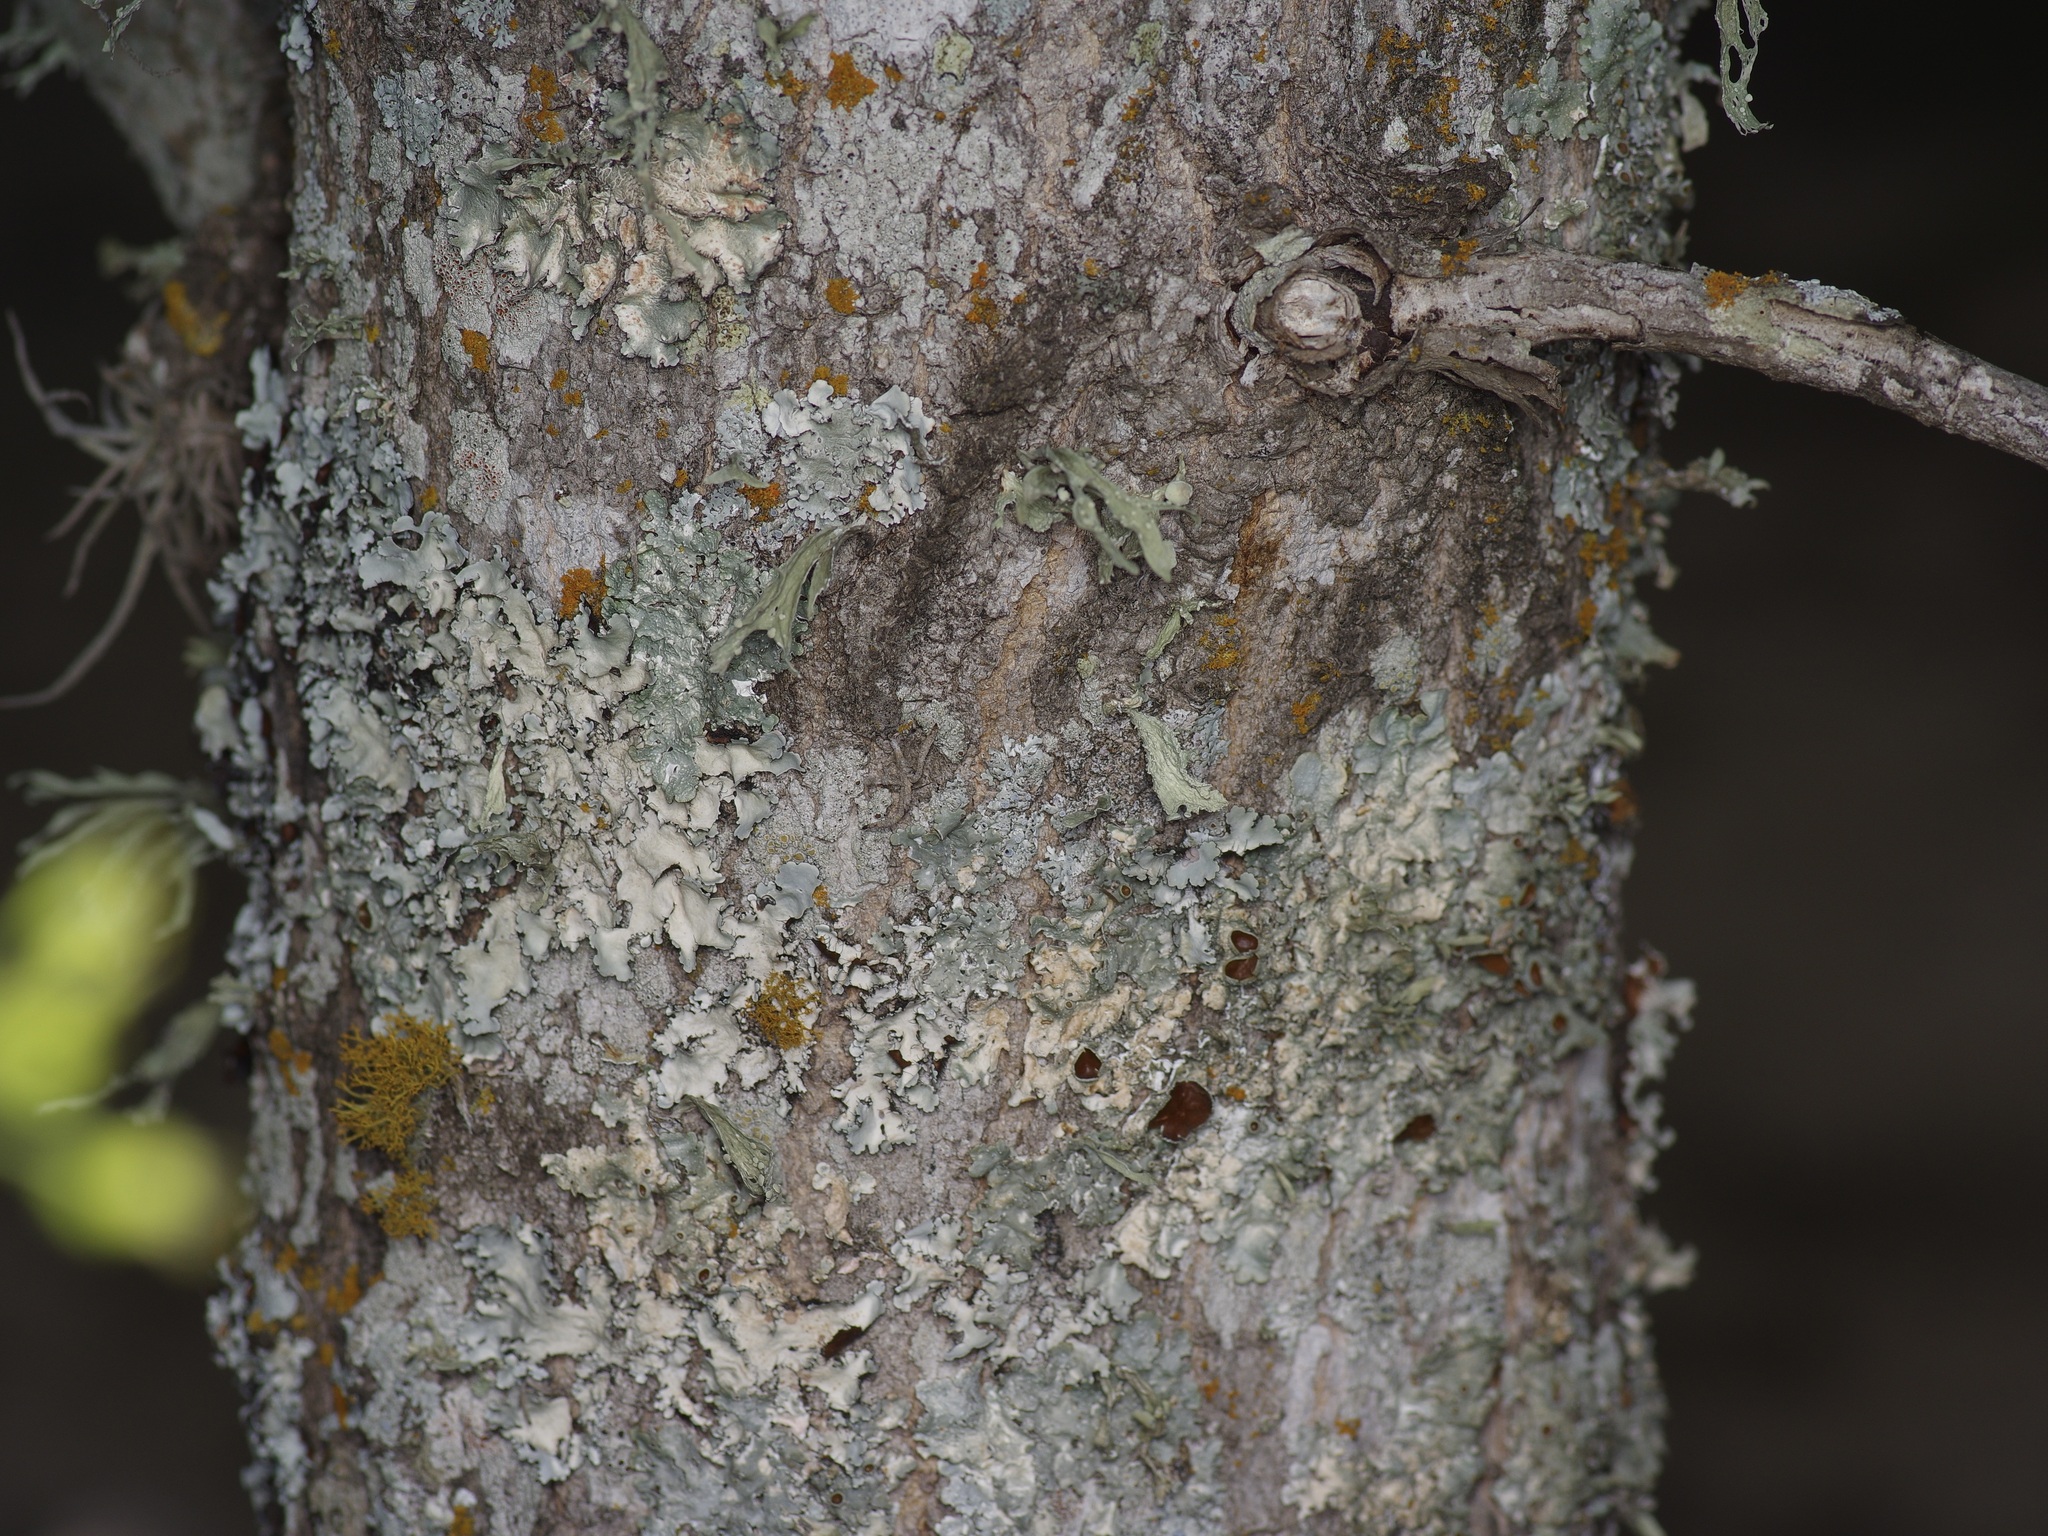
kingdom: Plantae
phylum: Tracheophyta
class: Magnoliopsida
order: Sapindales
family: Sapindaceae
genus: Acer
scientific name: Acer grandidentatum
